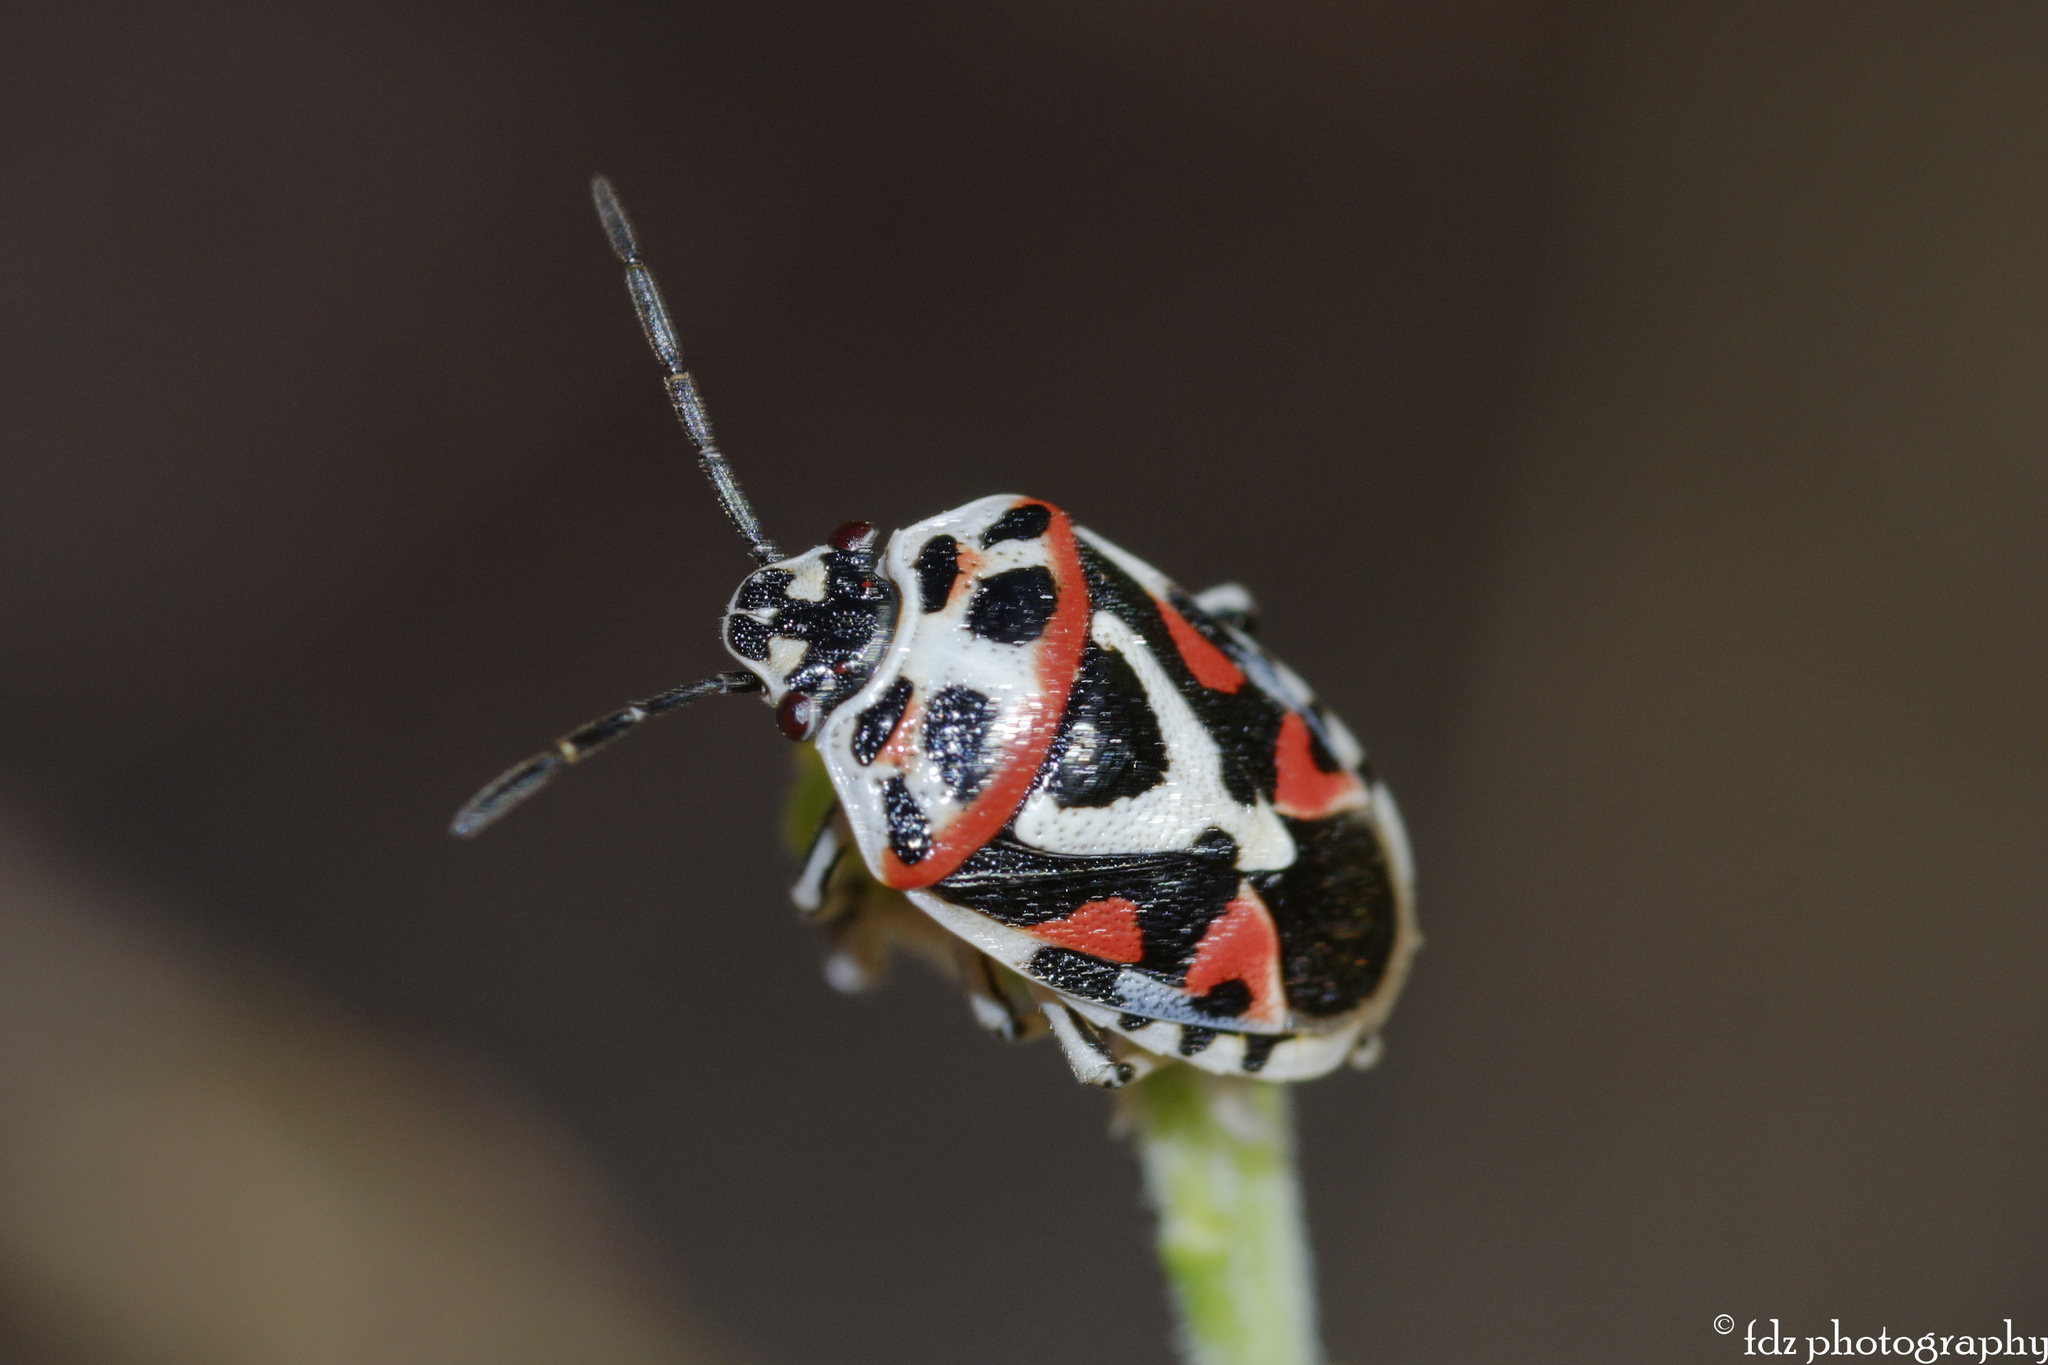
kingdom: Animalia
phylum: Arthropoda
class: Insecta
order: Hemiptera
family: Pentatomidae
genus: Eurydema
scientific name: Eurydema ornata
